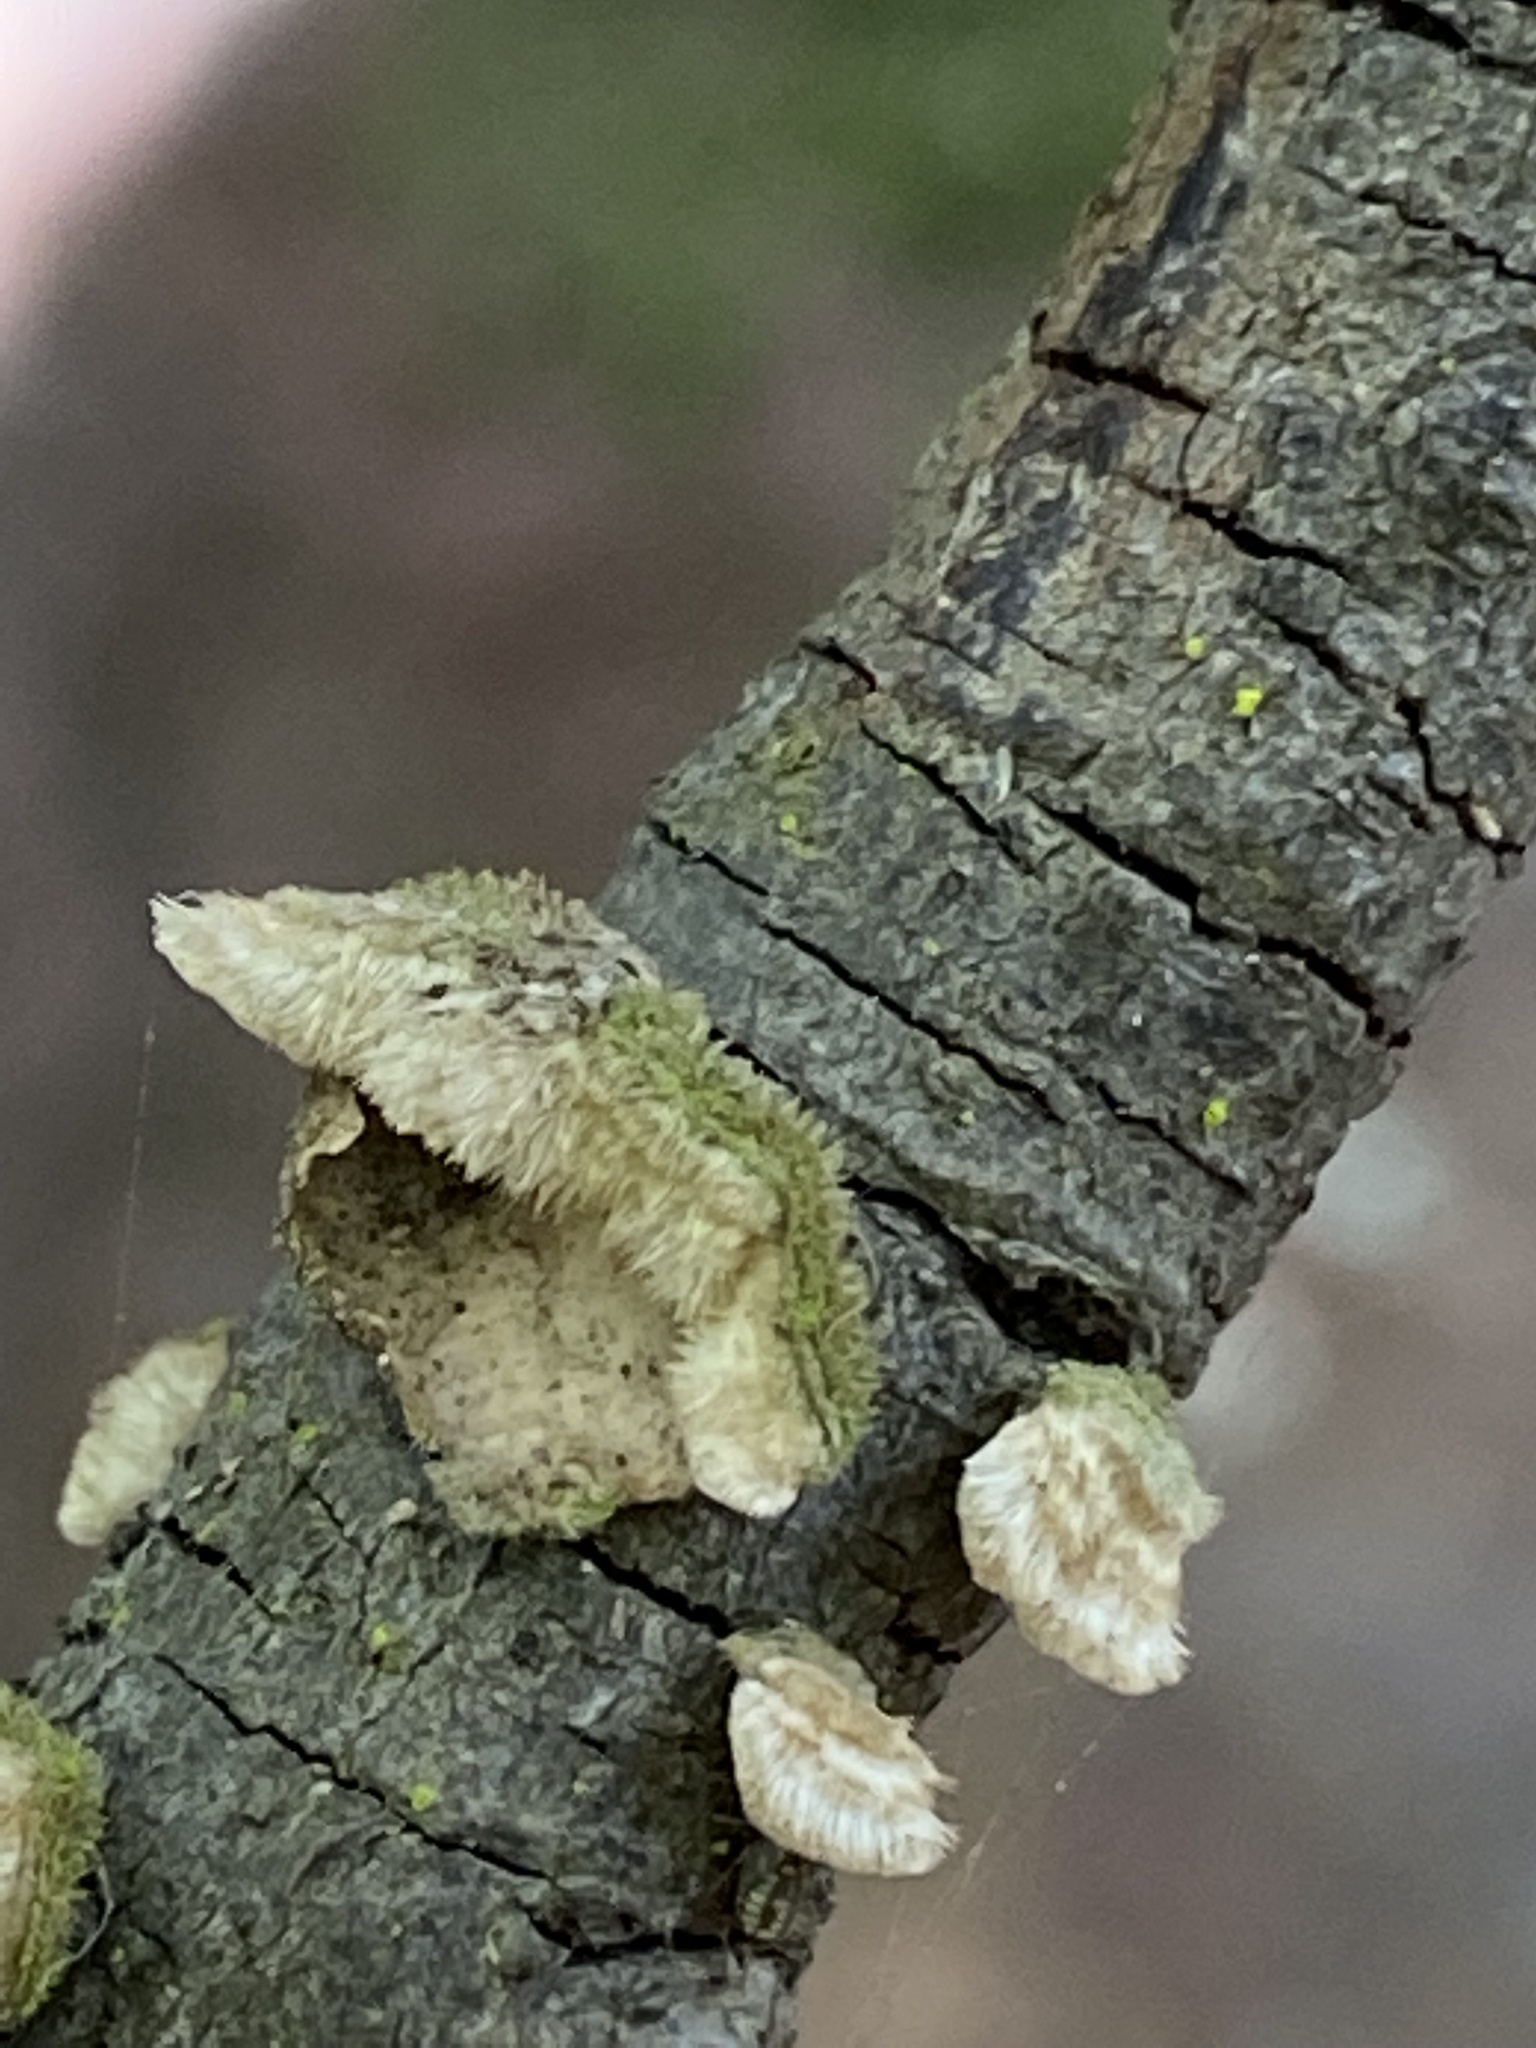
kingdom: Fungi
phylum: Basidiomycota
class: Agaricomycetes
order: Russulales
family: Stereaceae
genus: Stereum
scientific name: Stereum ochraceoflavum
